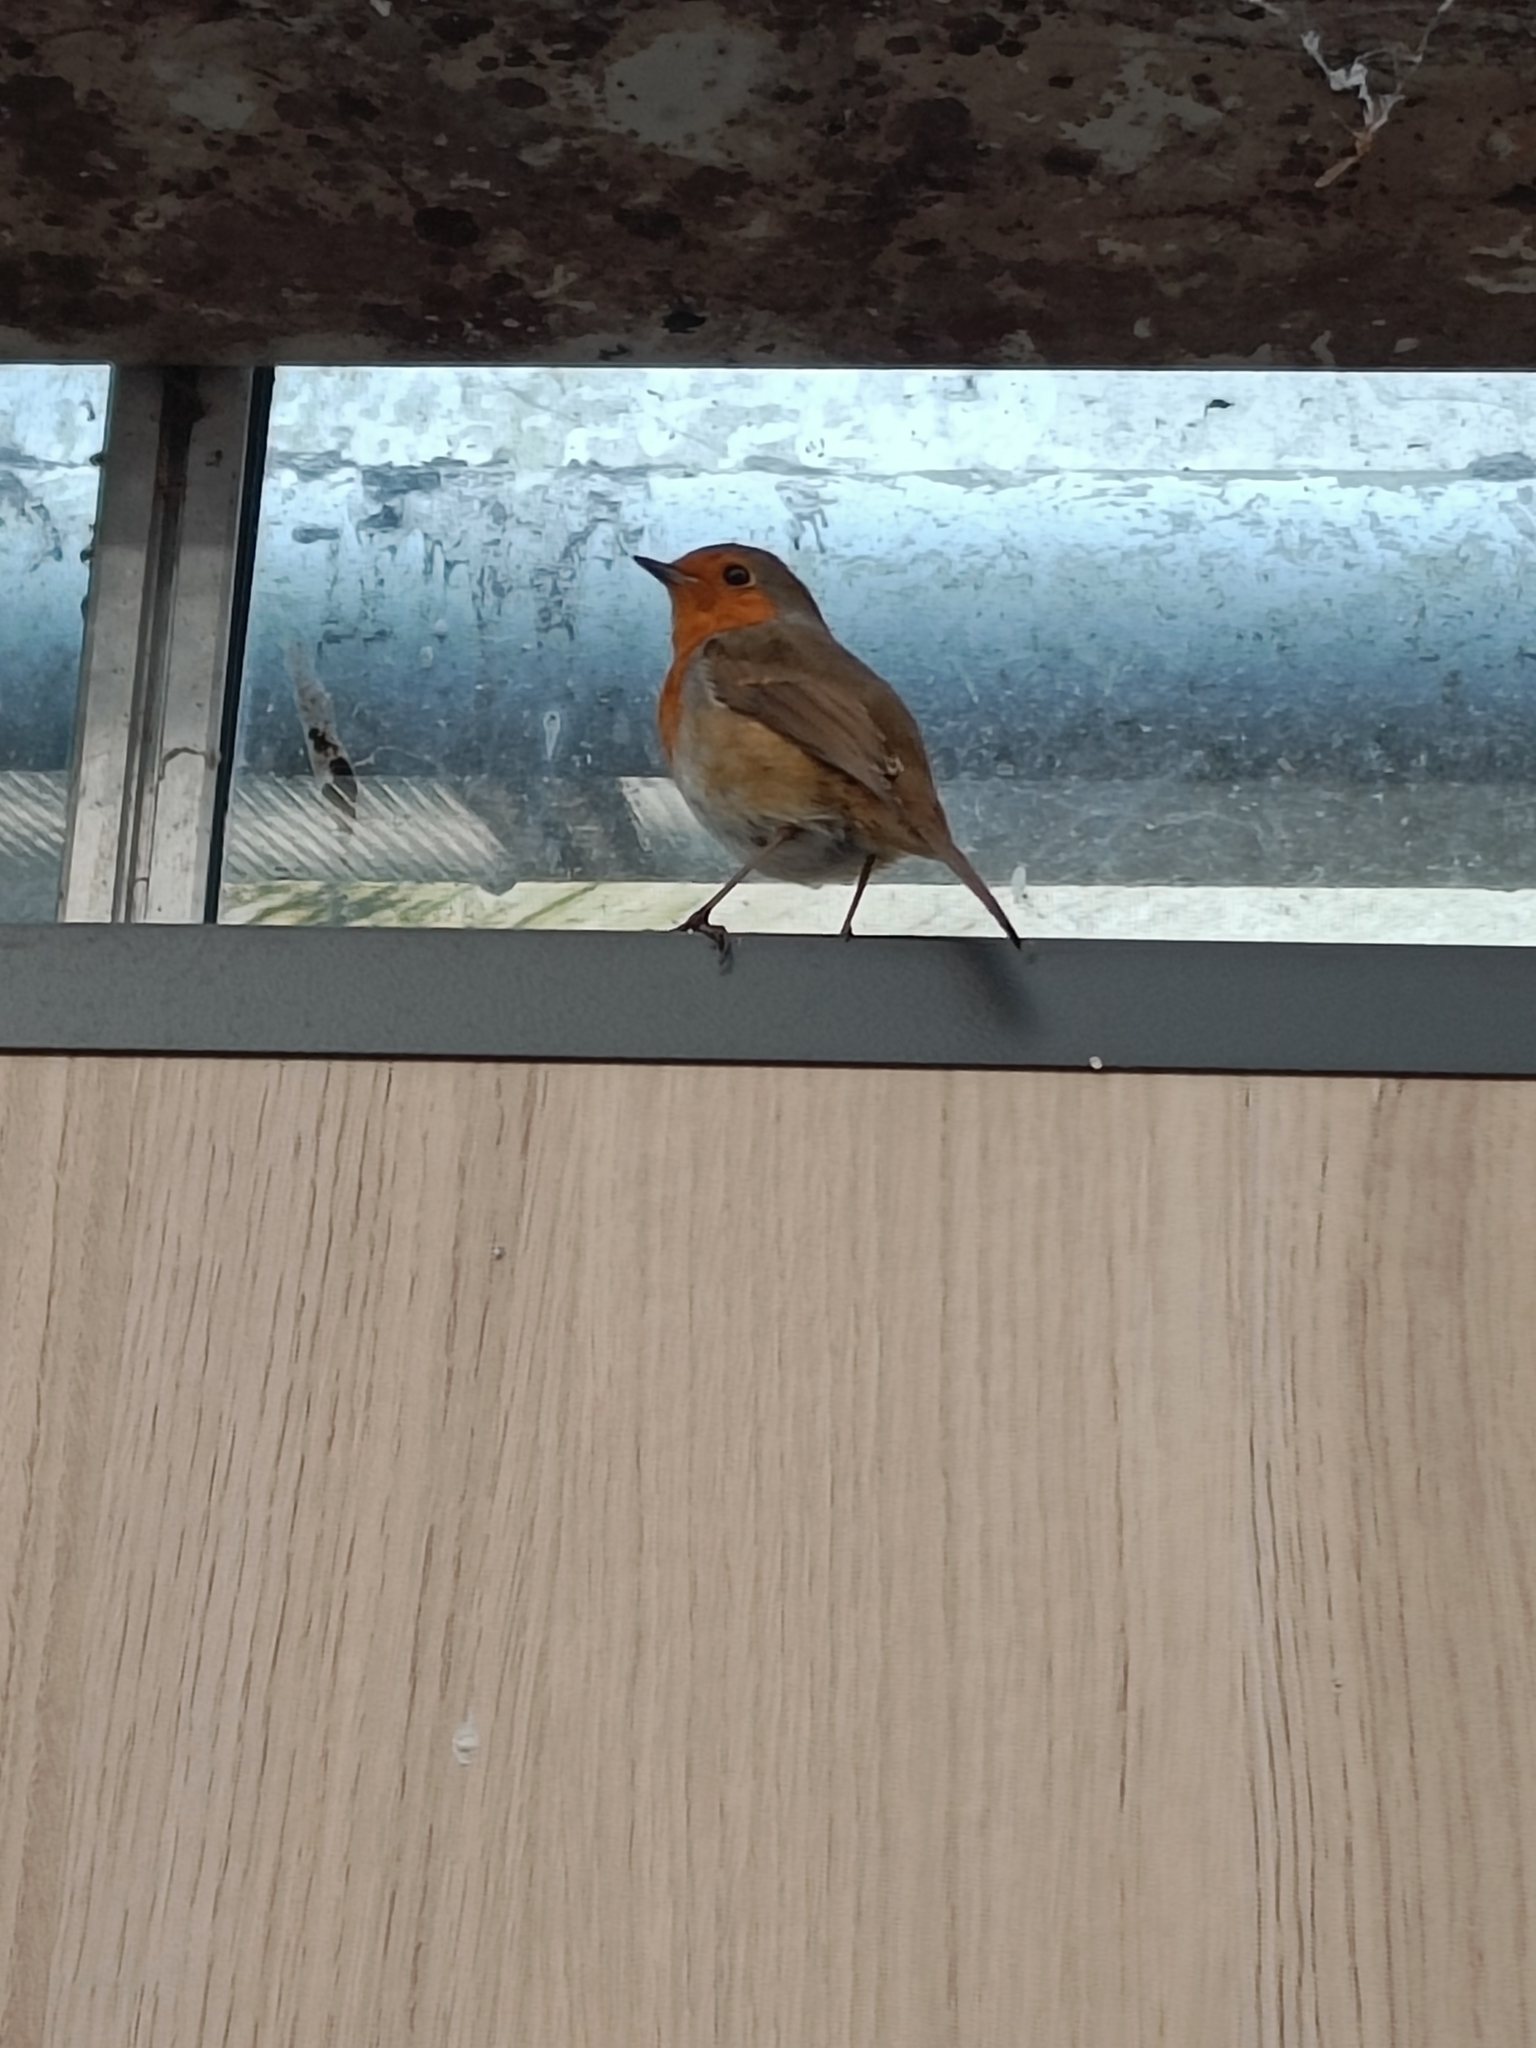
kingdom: Animalia
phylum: Chordata
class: Aves
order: Passeriformes
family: Muscicapidae
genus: Erithacus
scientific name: Erithacus rubecula
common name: European robin
